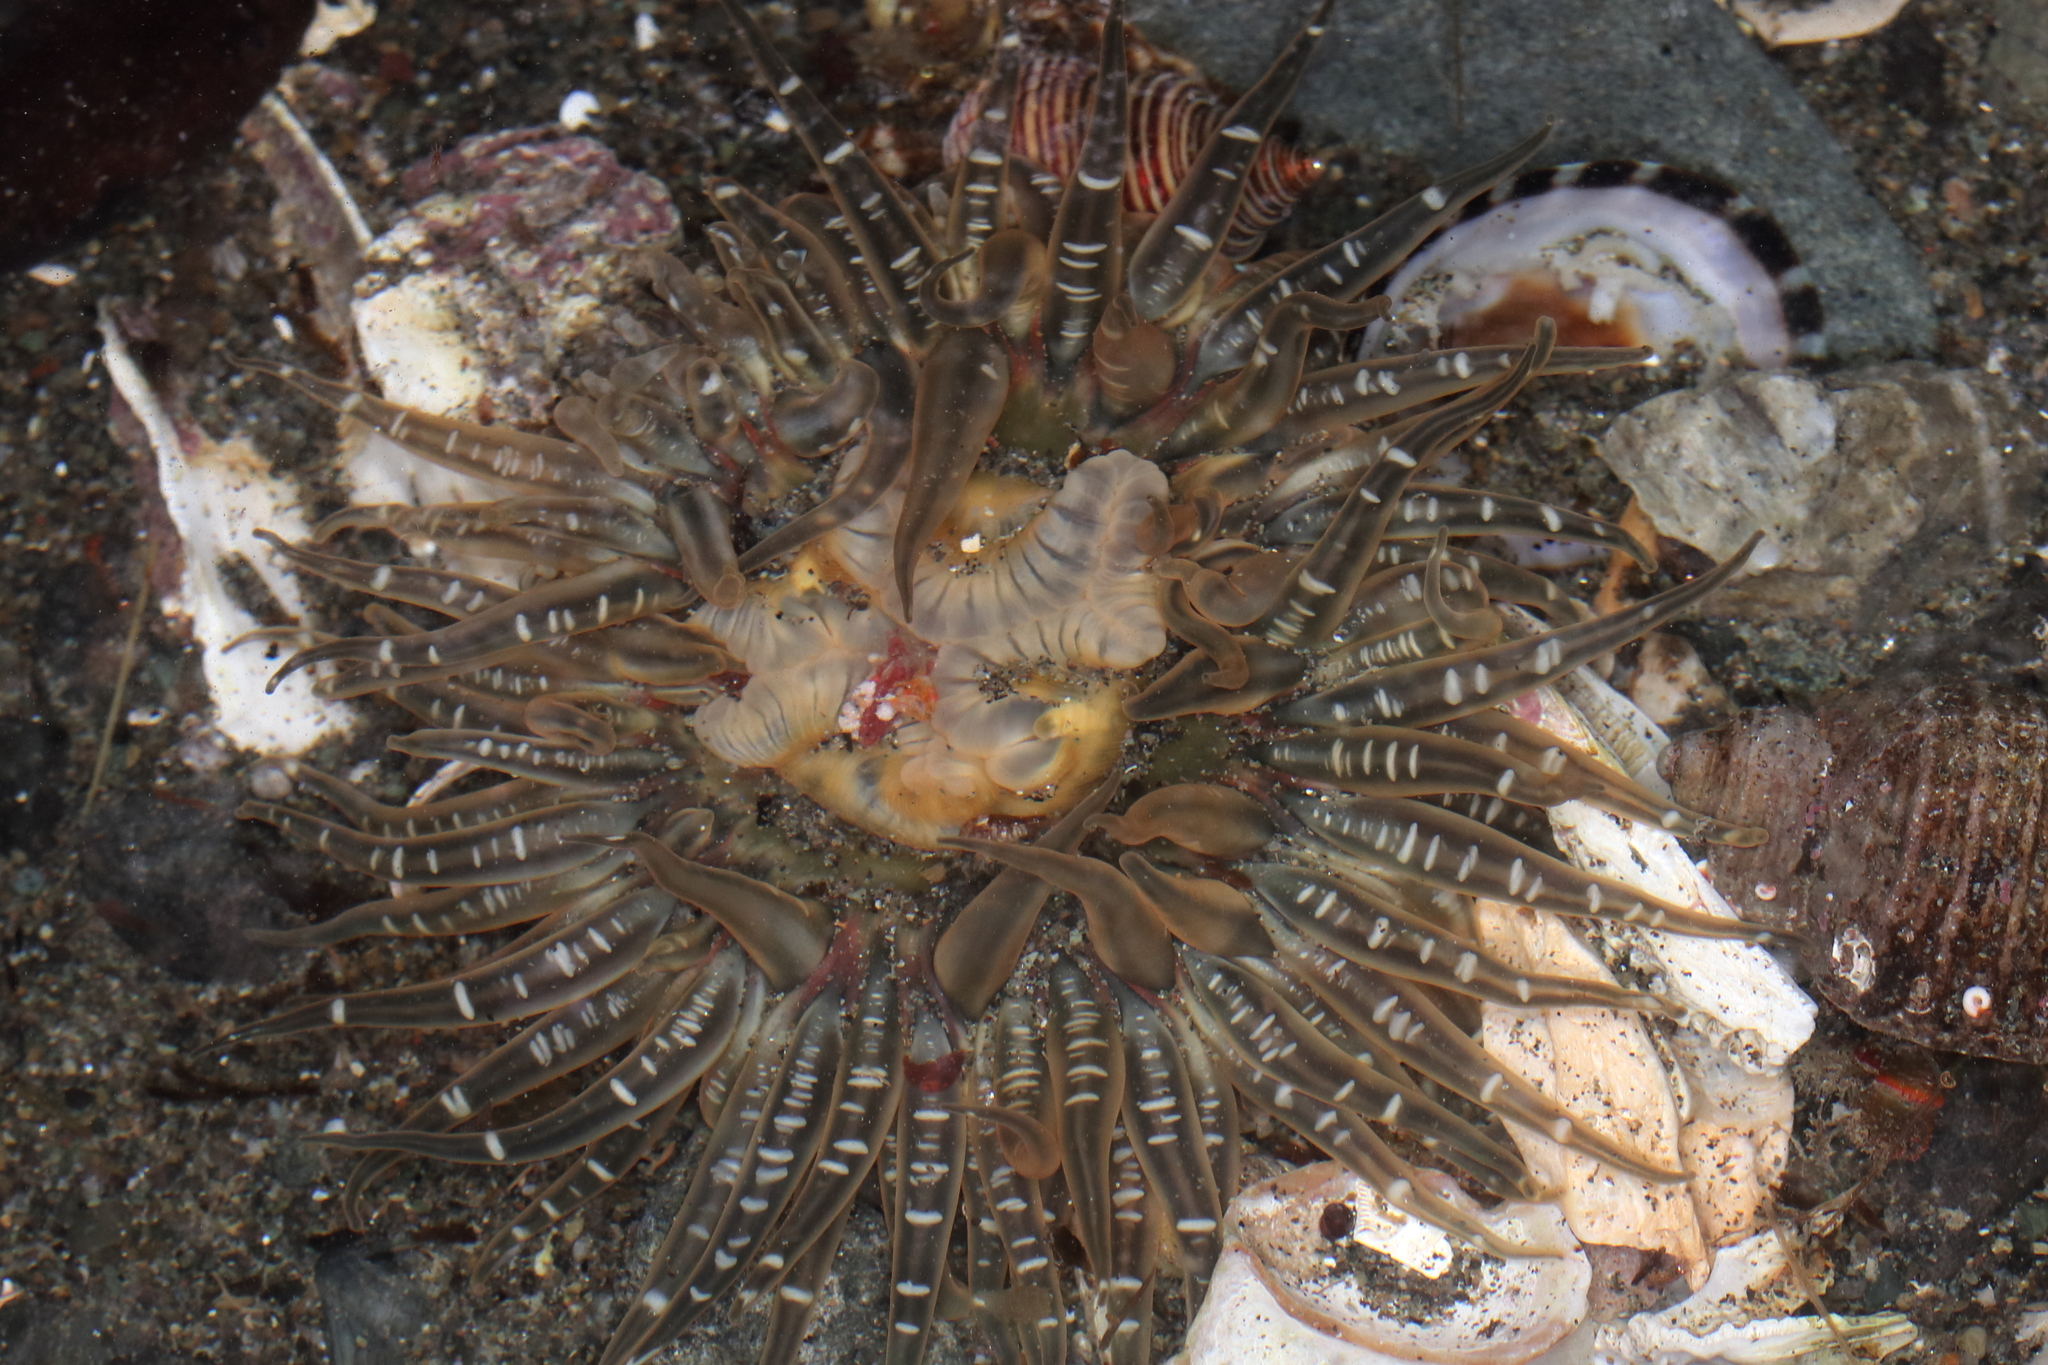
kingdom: Animalia
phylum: Cnidaria
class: Anthozoa
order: Actiniaria
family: Actiniidae
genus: Anthopleura
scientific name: Anthopleura artemisia
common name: Buried sea anemone
